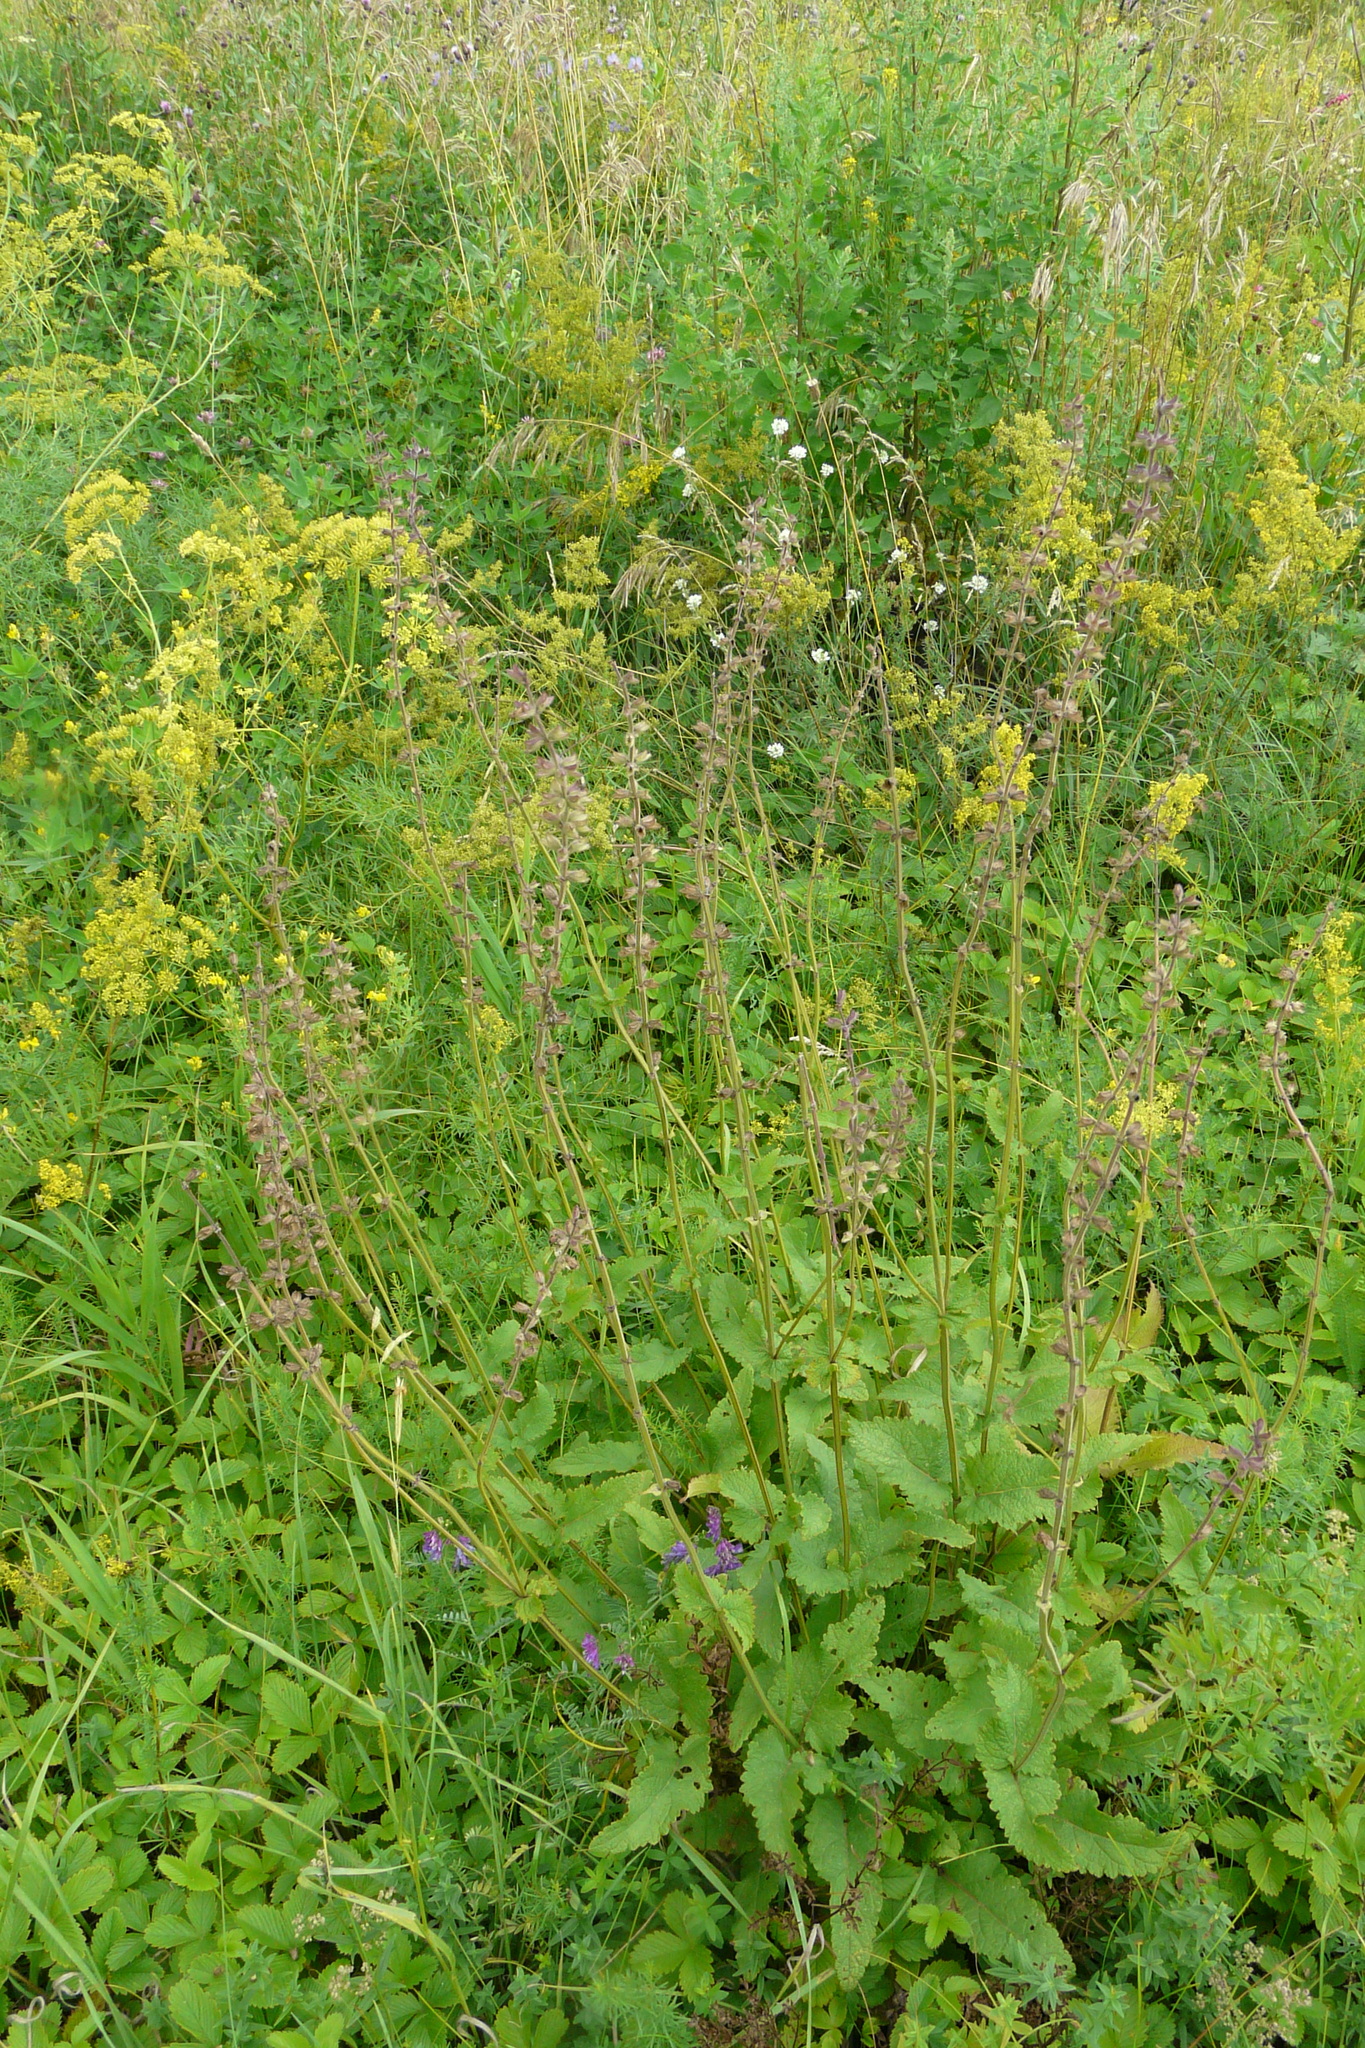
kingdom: Plantae
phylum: Tracheophyta
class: Magnoliopsida
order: Lamiales
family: Lamiaceae
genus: Salvia
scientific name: Salvia dumetorum
